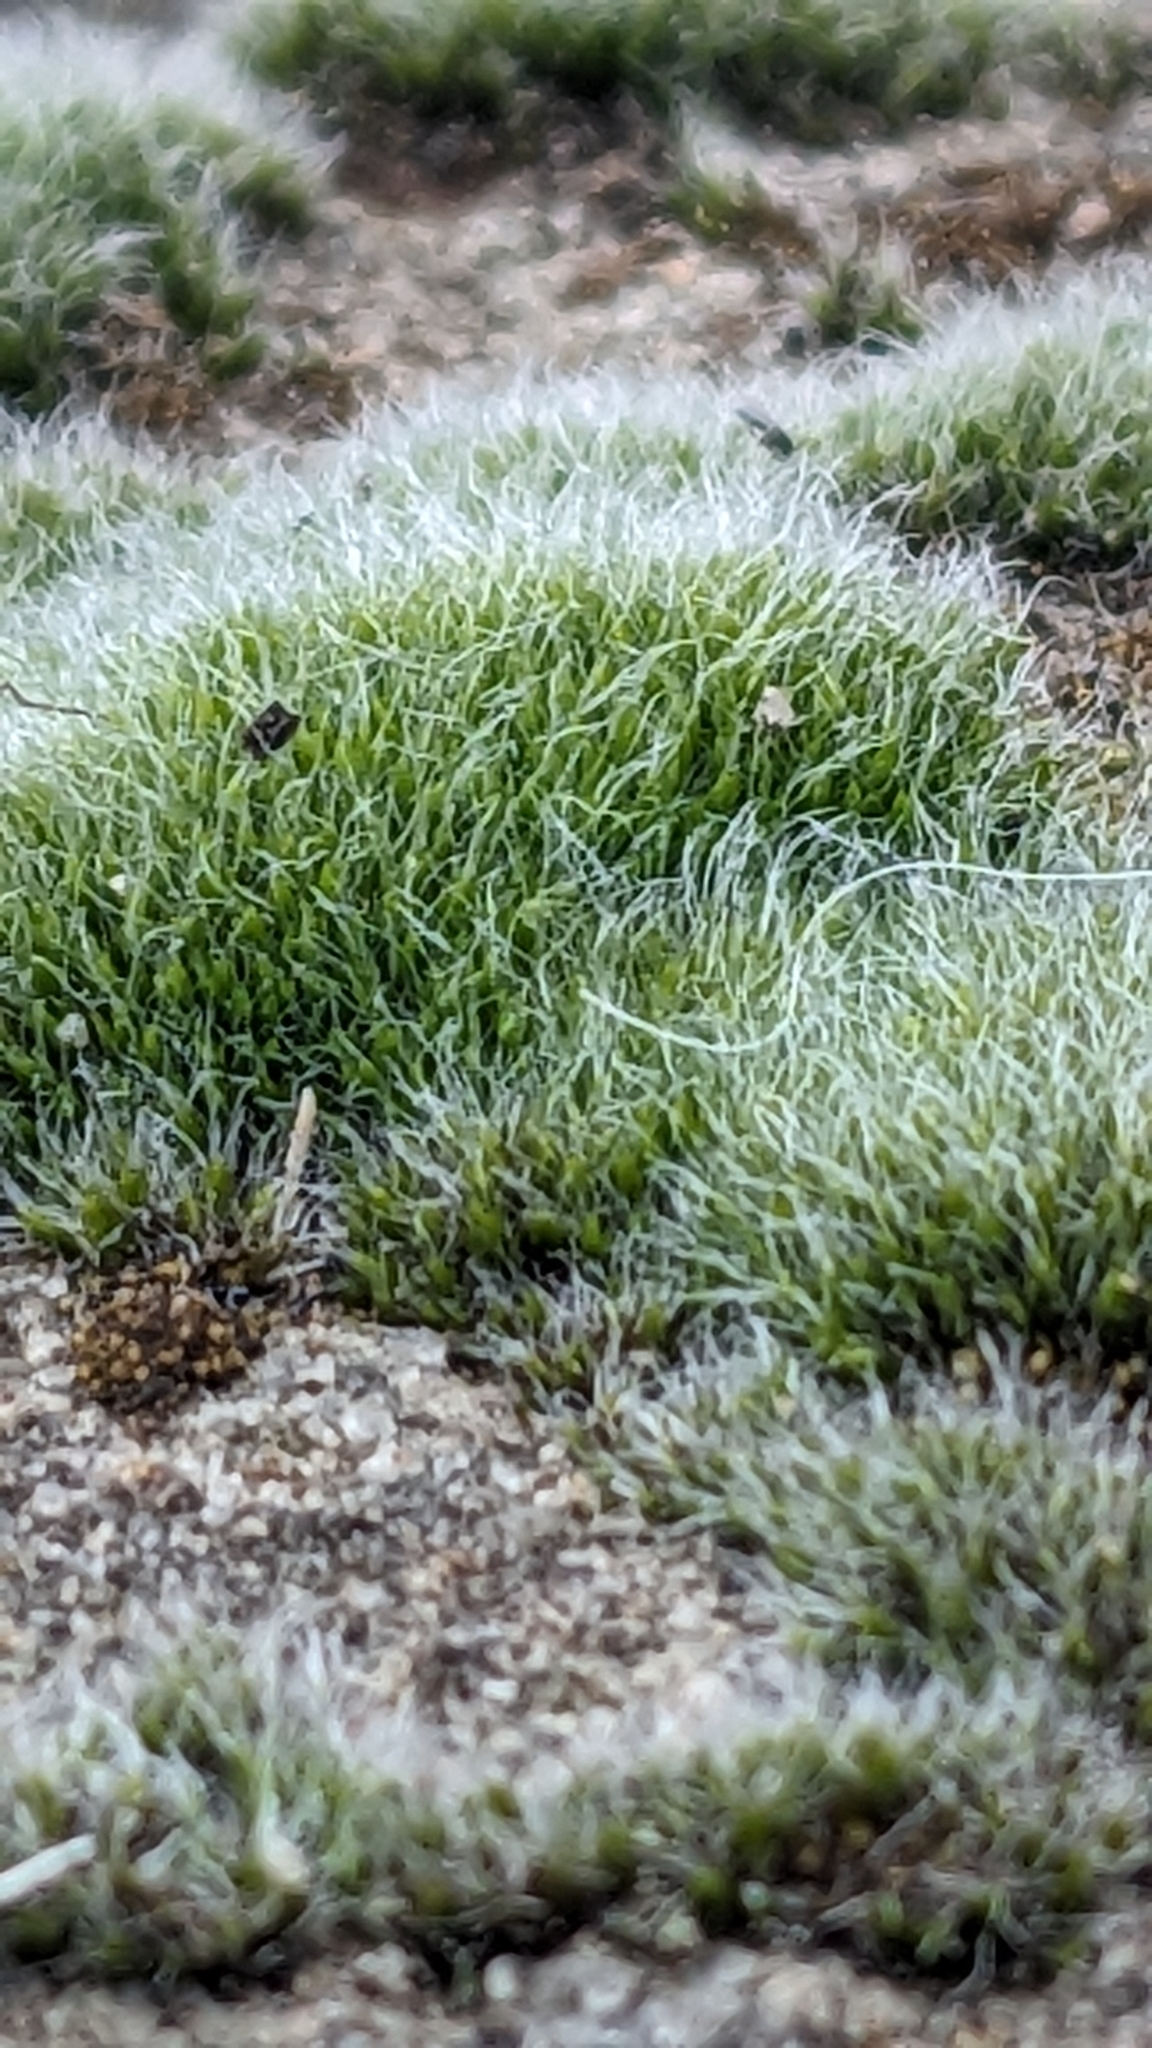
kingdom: Plantae
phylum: Bryophyta
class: Bryopsida
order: Grimmiales
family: Grimmiaceae
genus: Grimmia
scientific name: Grimmia pulvinata
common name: Grey-cushioned grimmia
